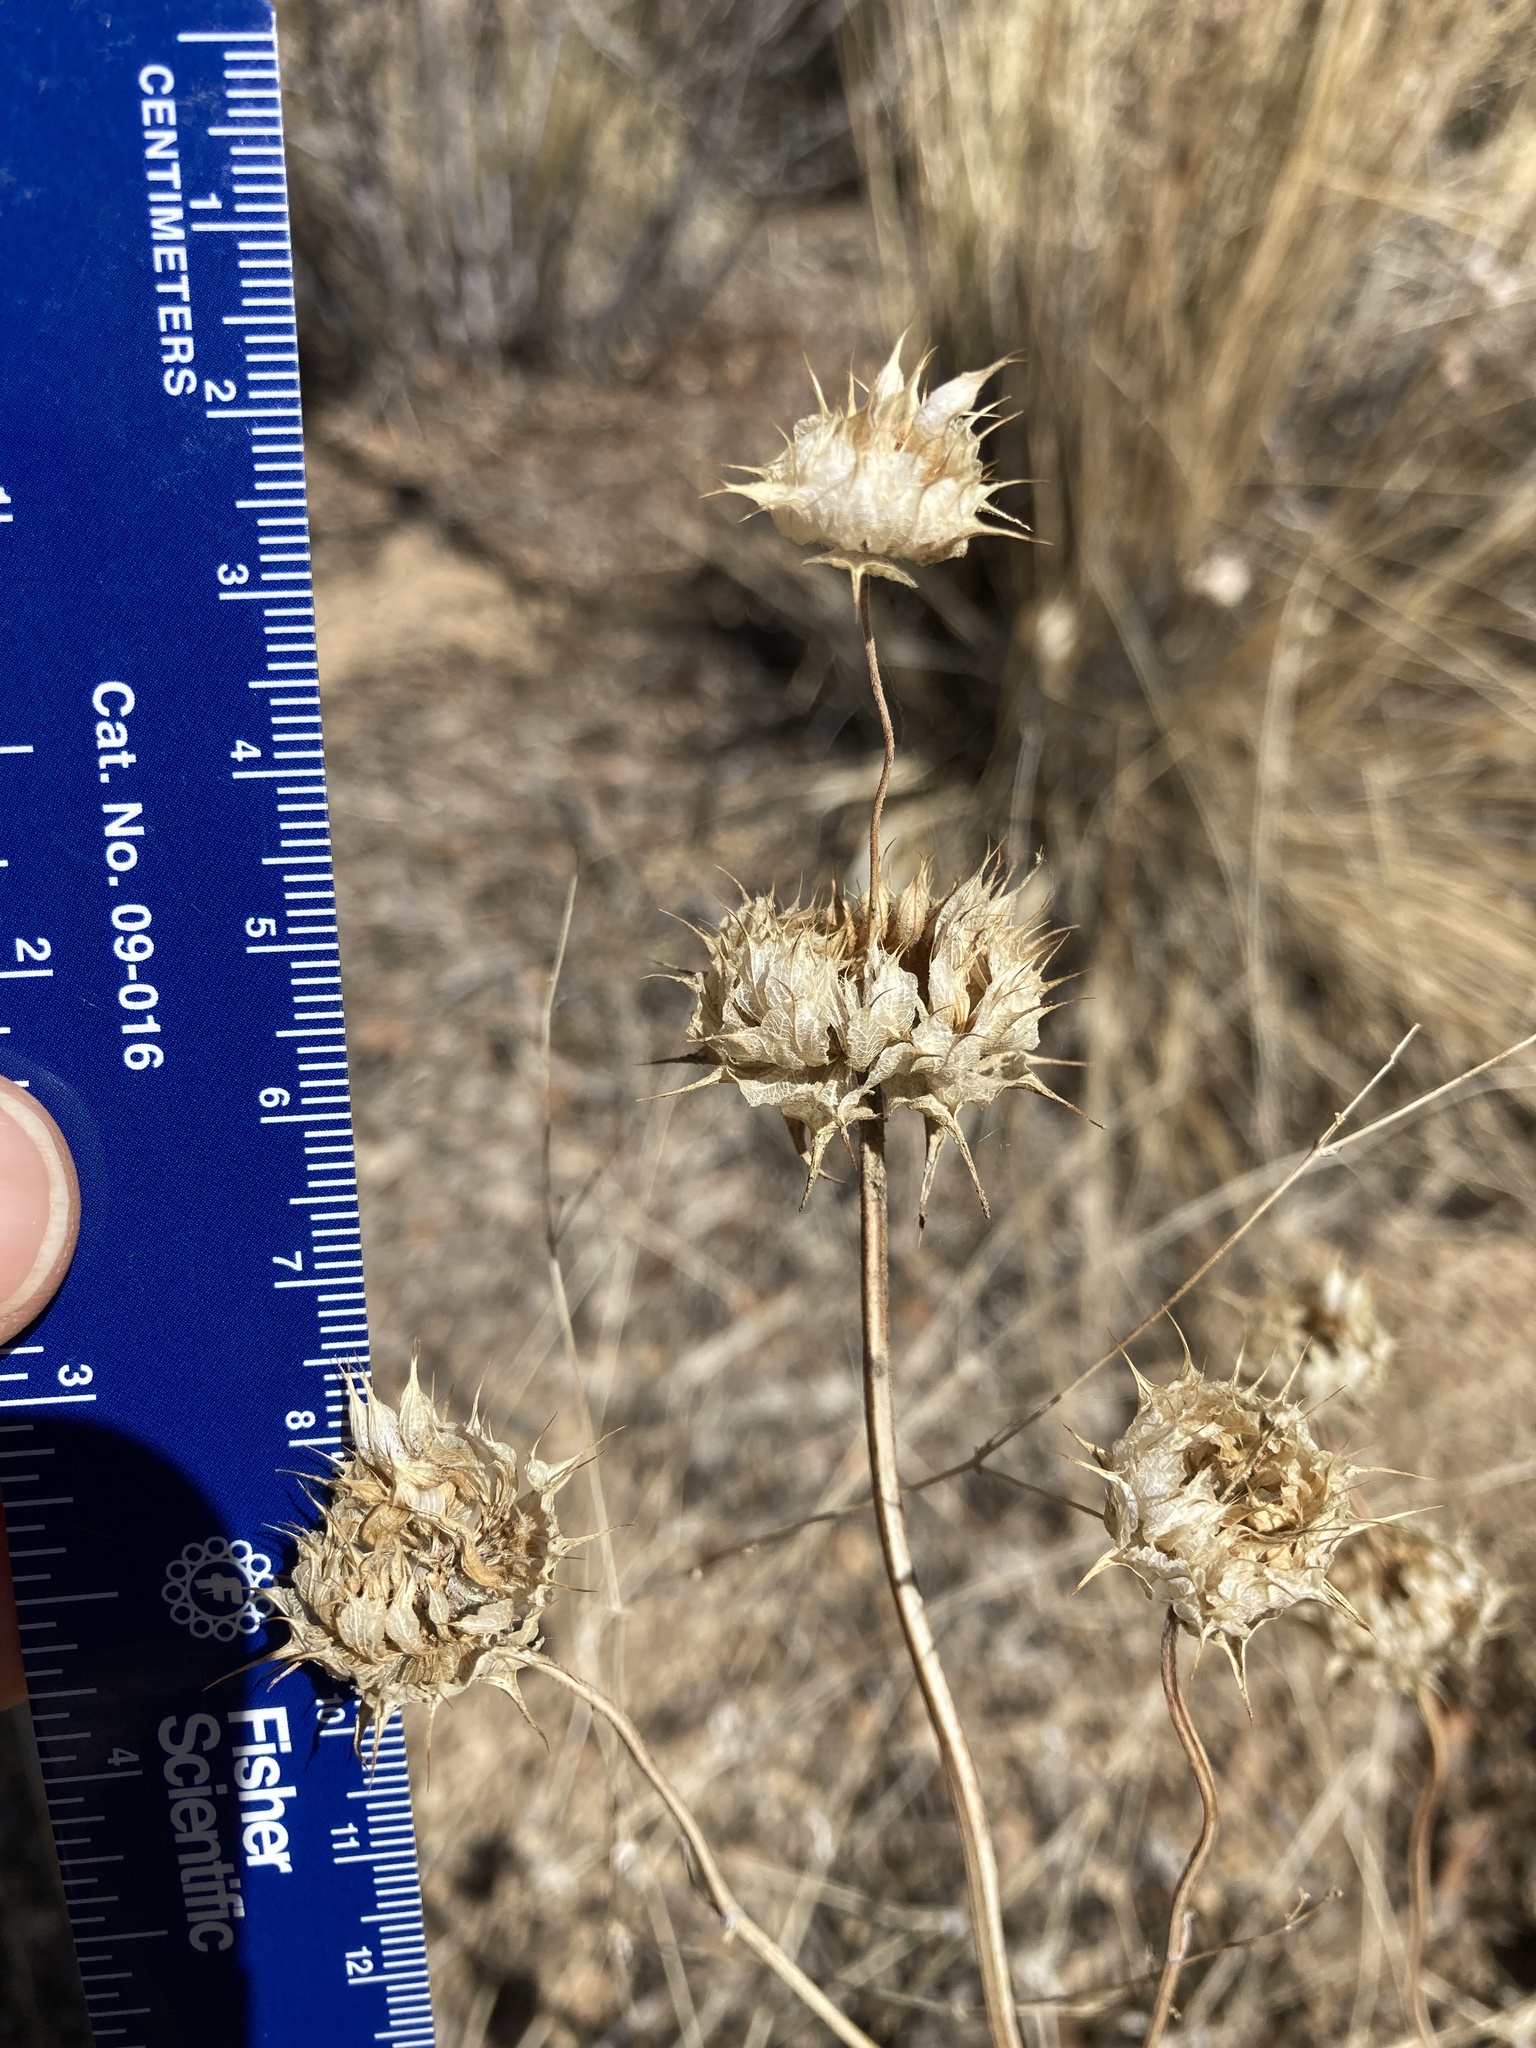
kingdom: Plantae
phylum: Tracheophyta
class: Magnoliopsida
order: Lamiales
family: Lamiaceae
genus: Salvia
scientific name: Salvia columbariae
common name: Chia
